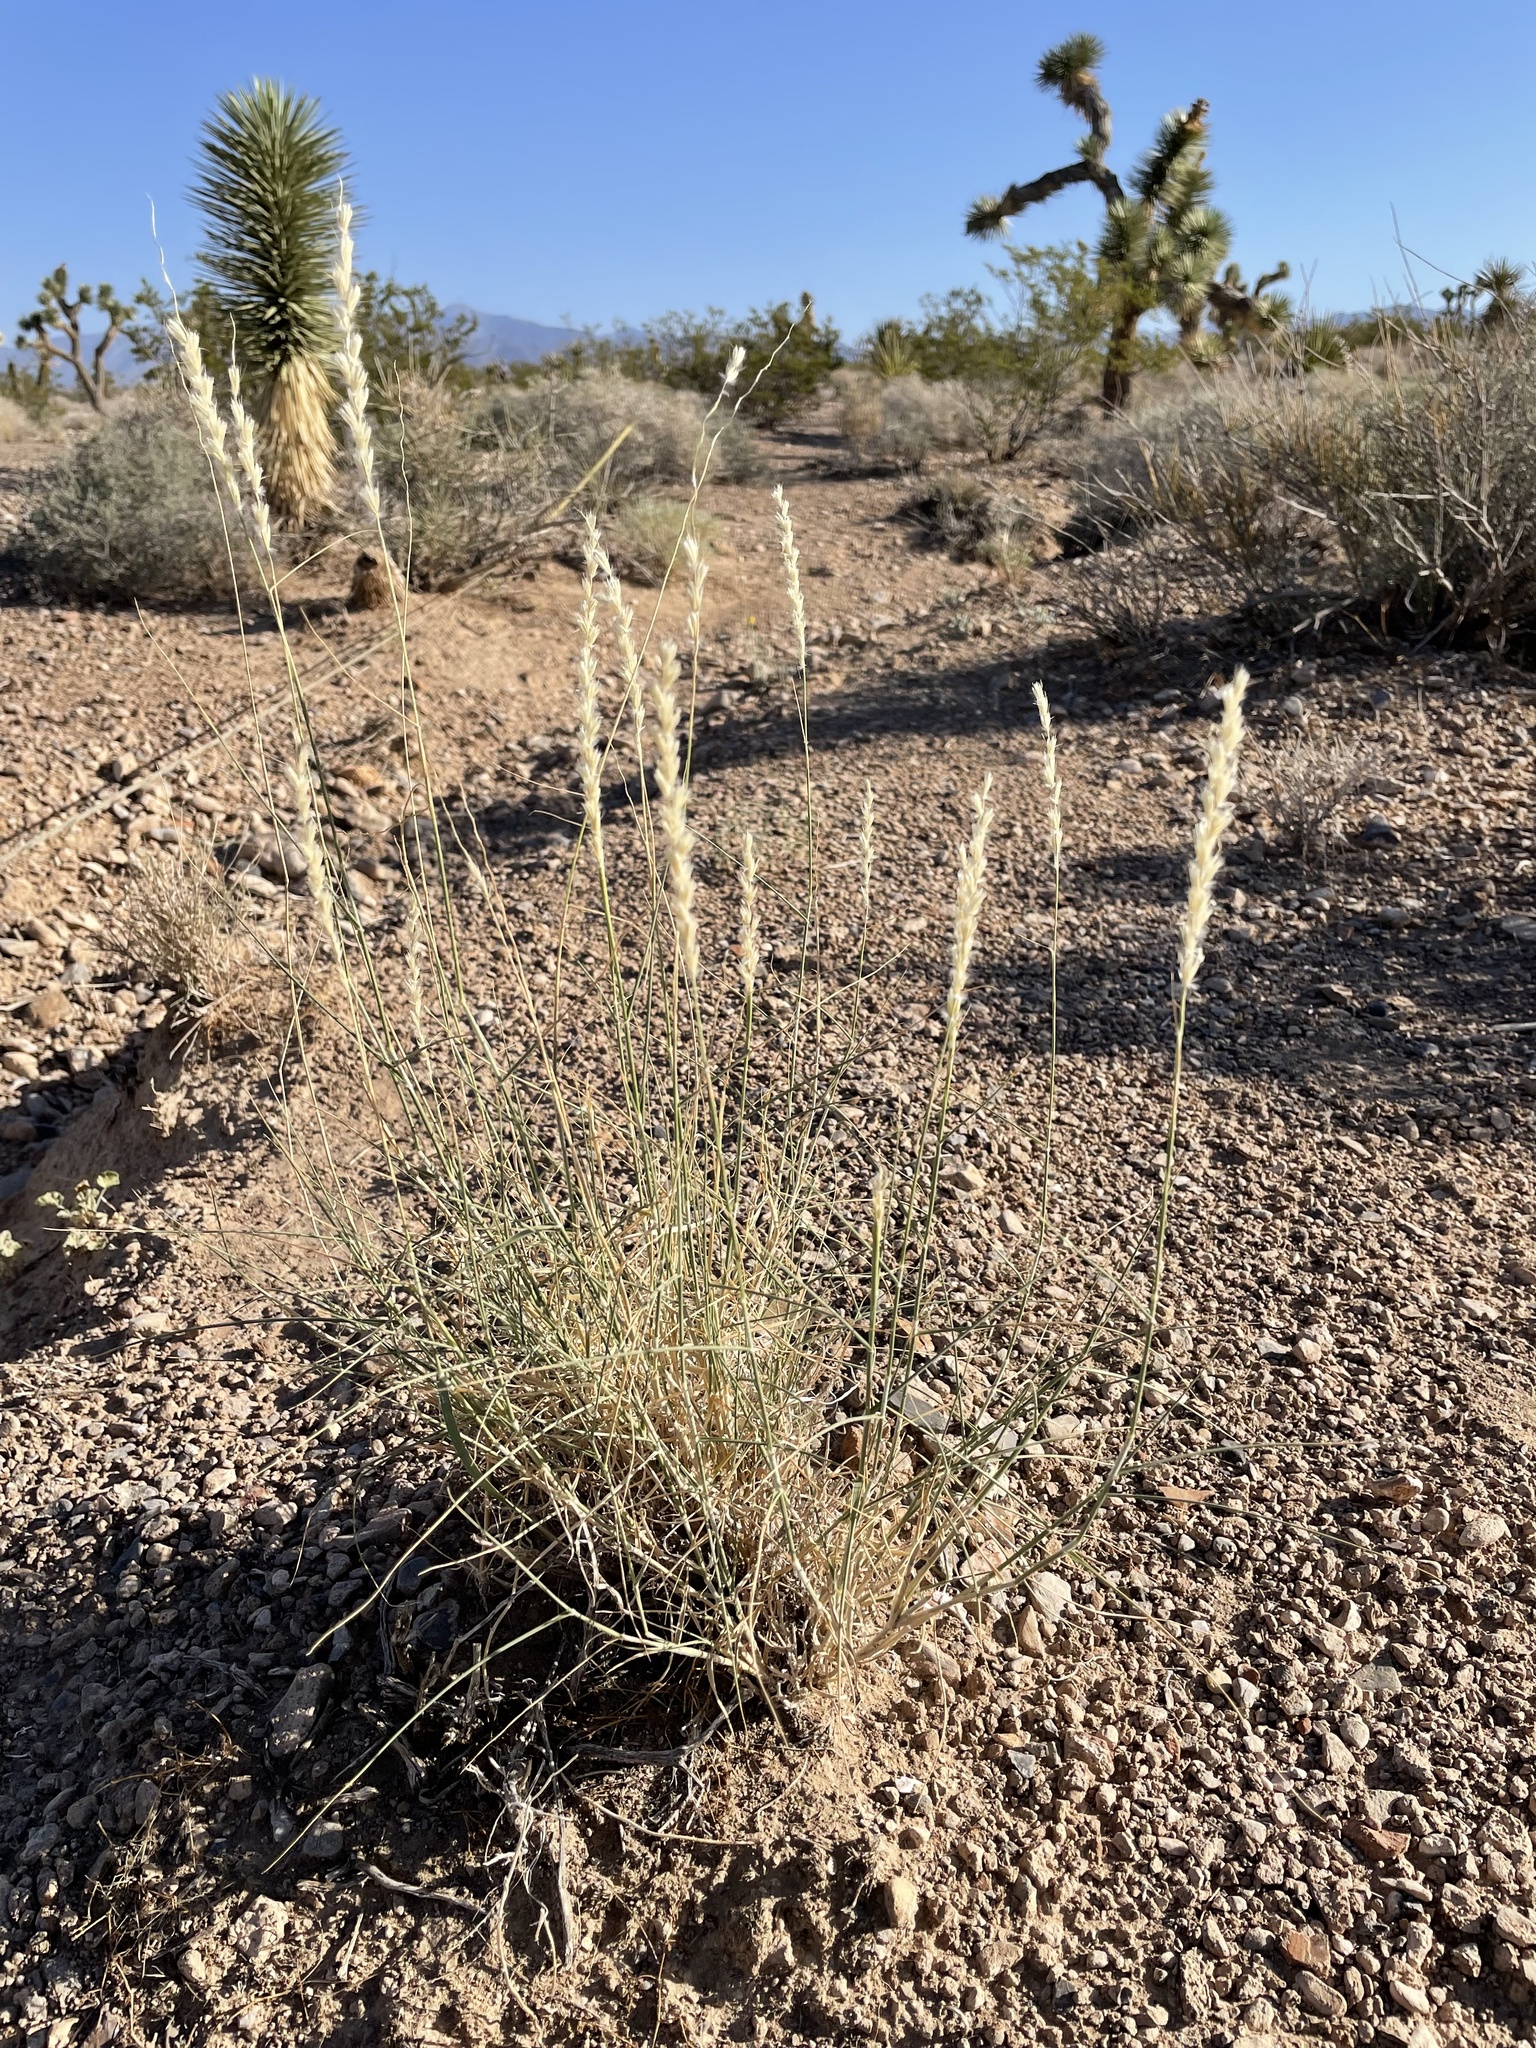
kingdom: Plantae
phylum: Tracheophyta
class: Liliopsida
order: Poales
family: Poaceae
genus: Hilaria
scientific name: Hilaria rigida
